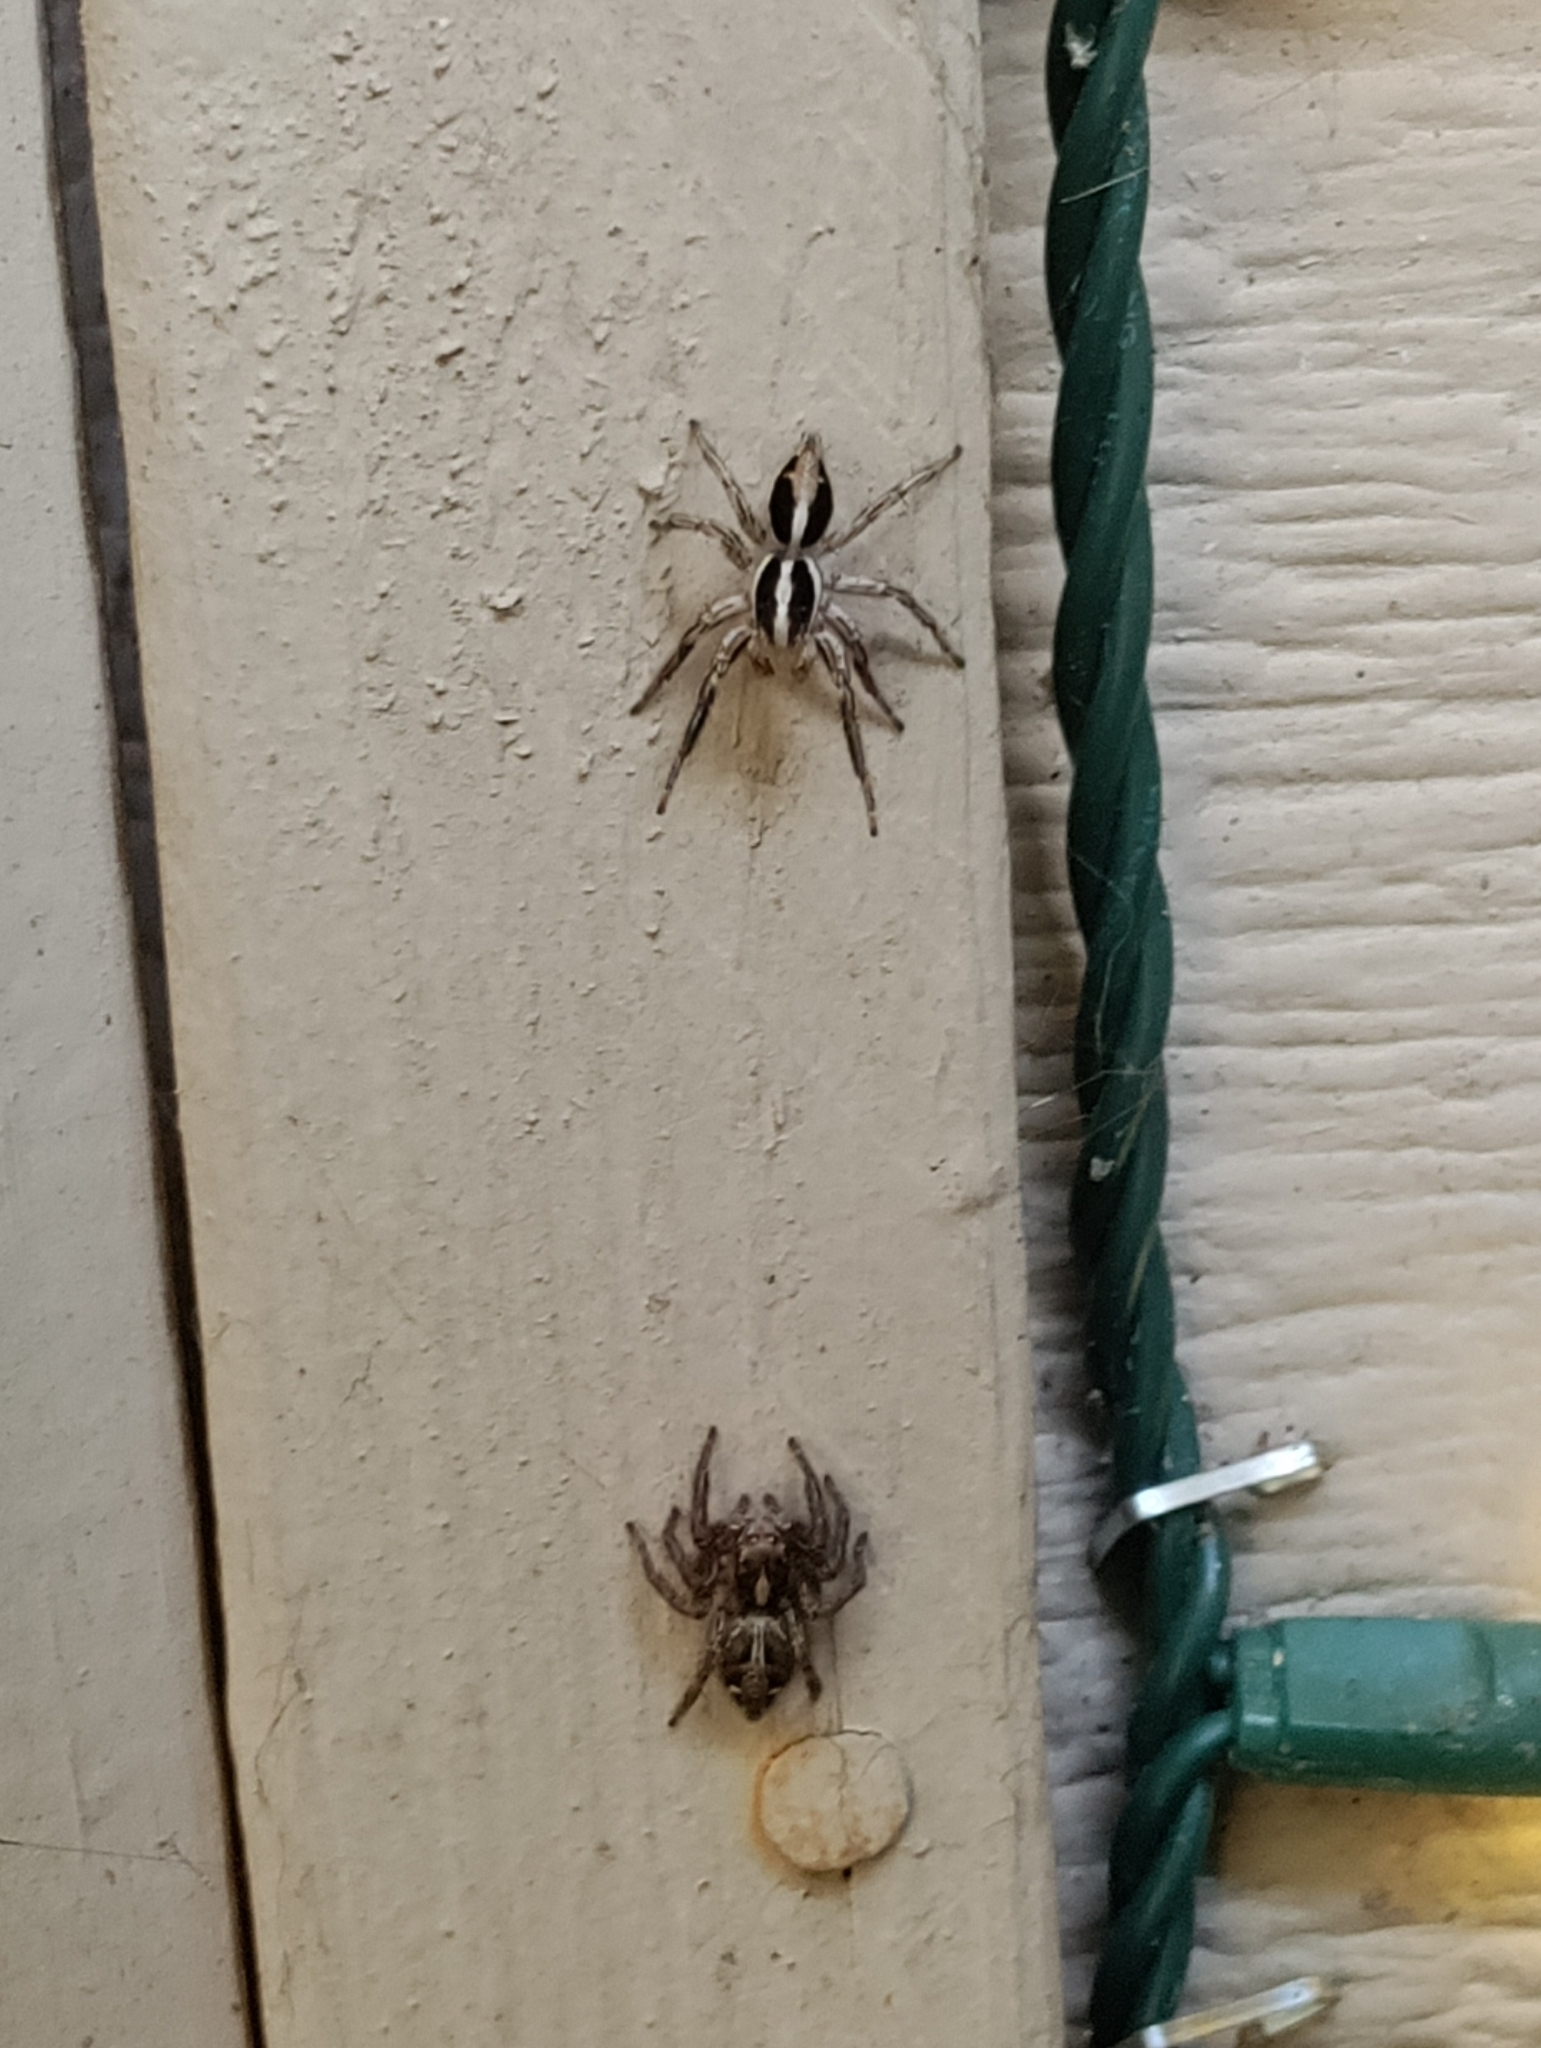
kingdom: Animalia
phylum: Arthropoda
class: Arachnida
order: Araneae
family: Salticidae
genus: Plexippus
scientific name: Plexippus paykulli
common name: Pantropical jumper
